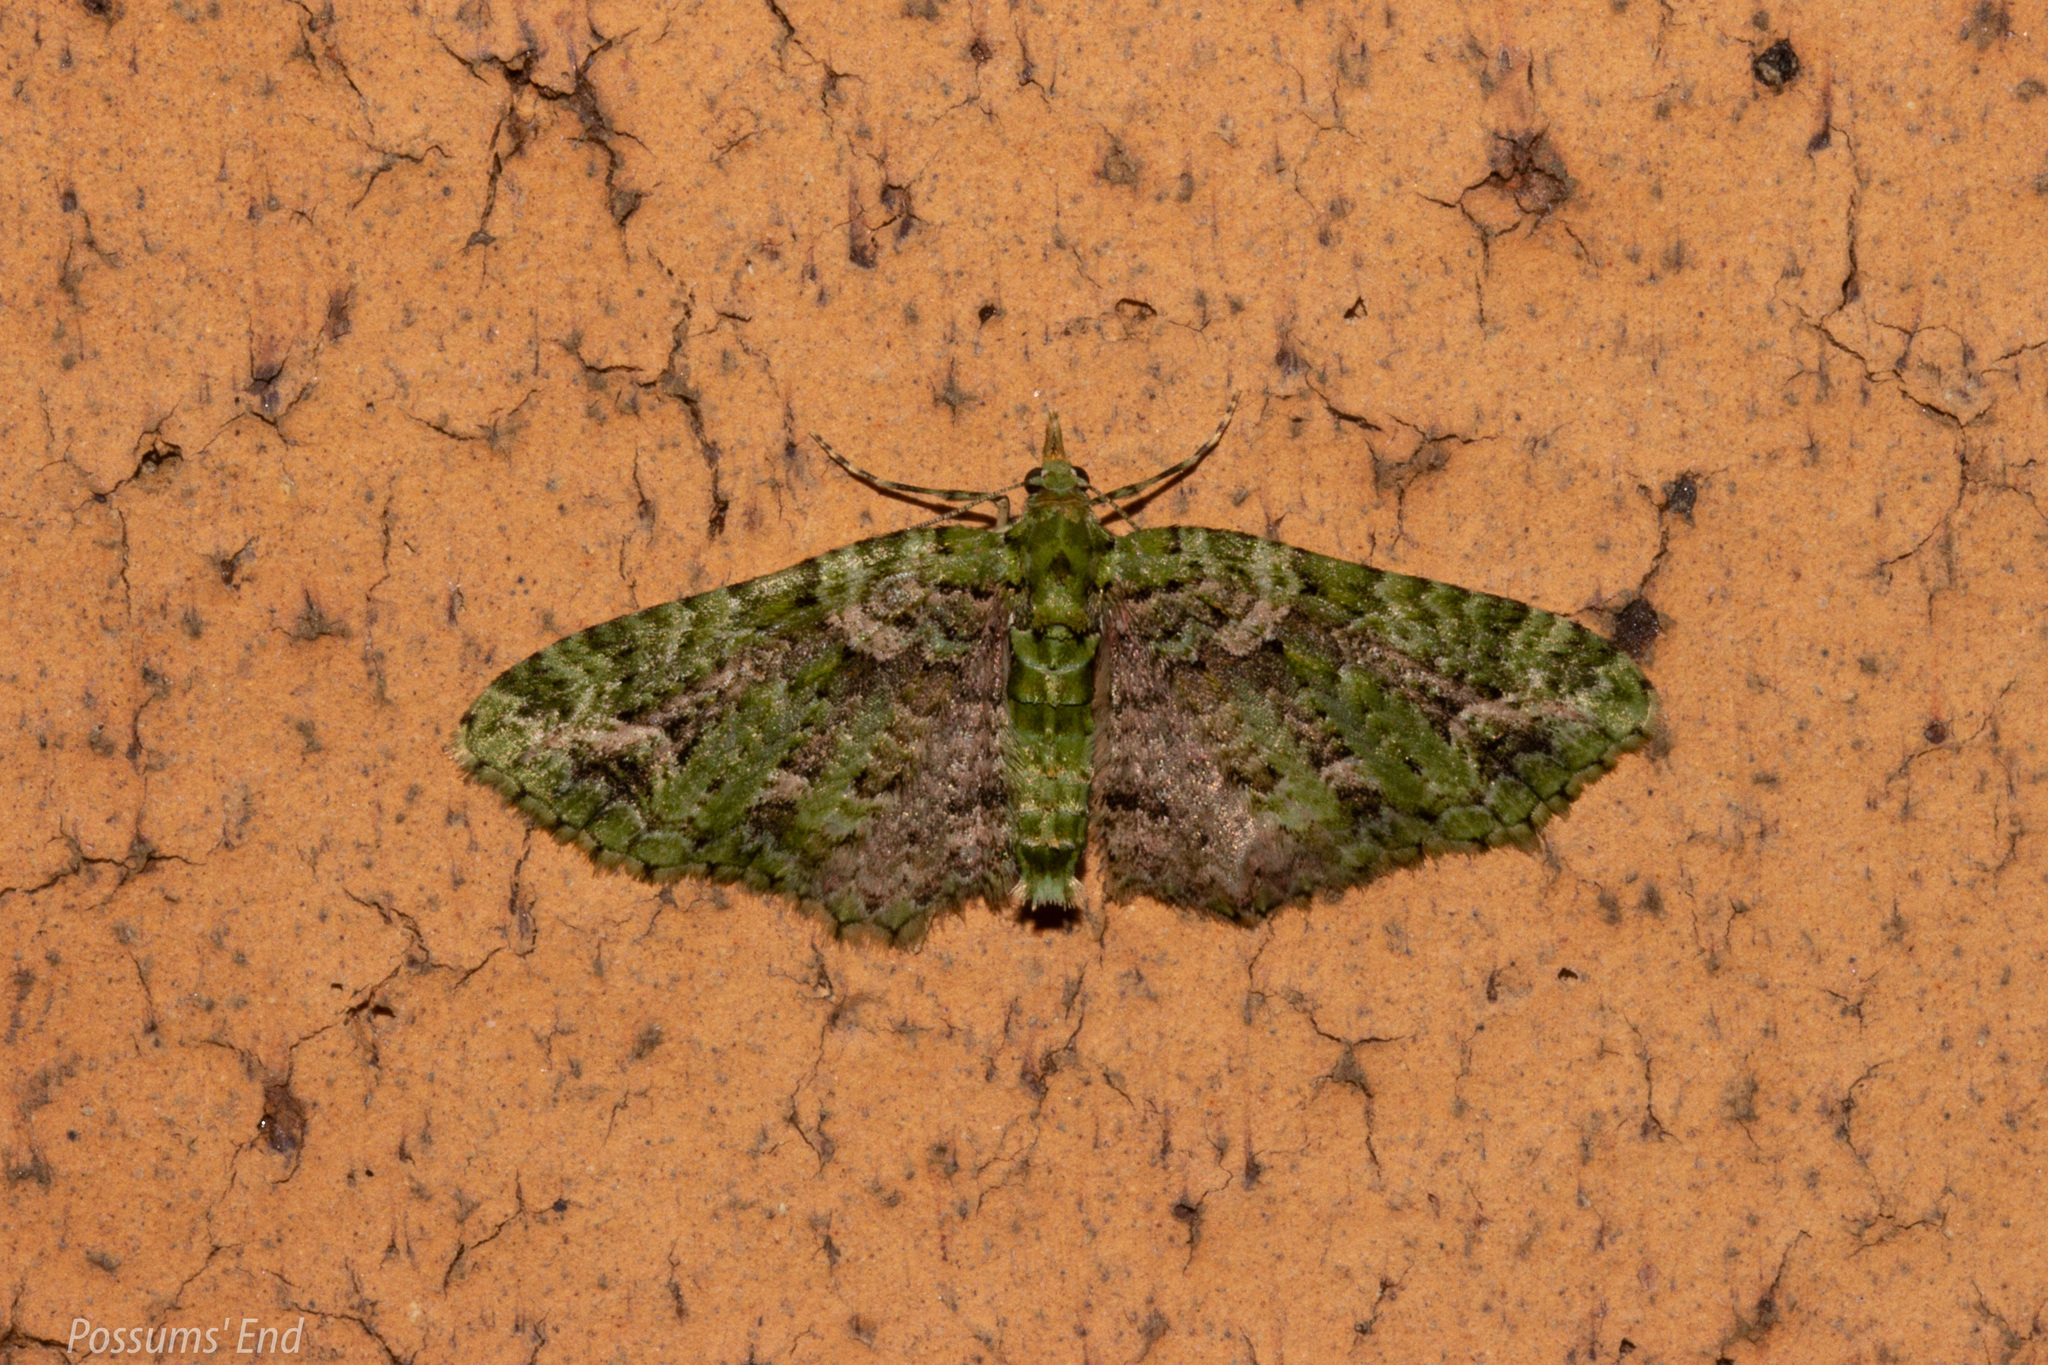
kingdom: Animalia
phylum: Arthropoda
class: Insecta
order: Lepidoptera
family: Geometridae
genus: Pasiphila
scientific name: Pasiphila muscosata
